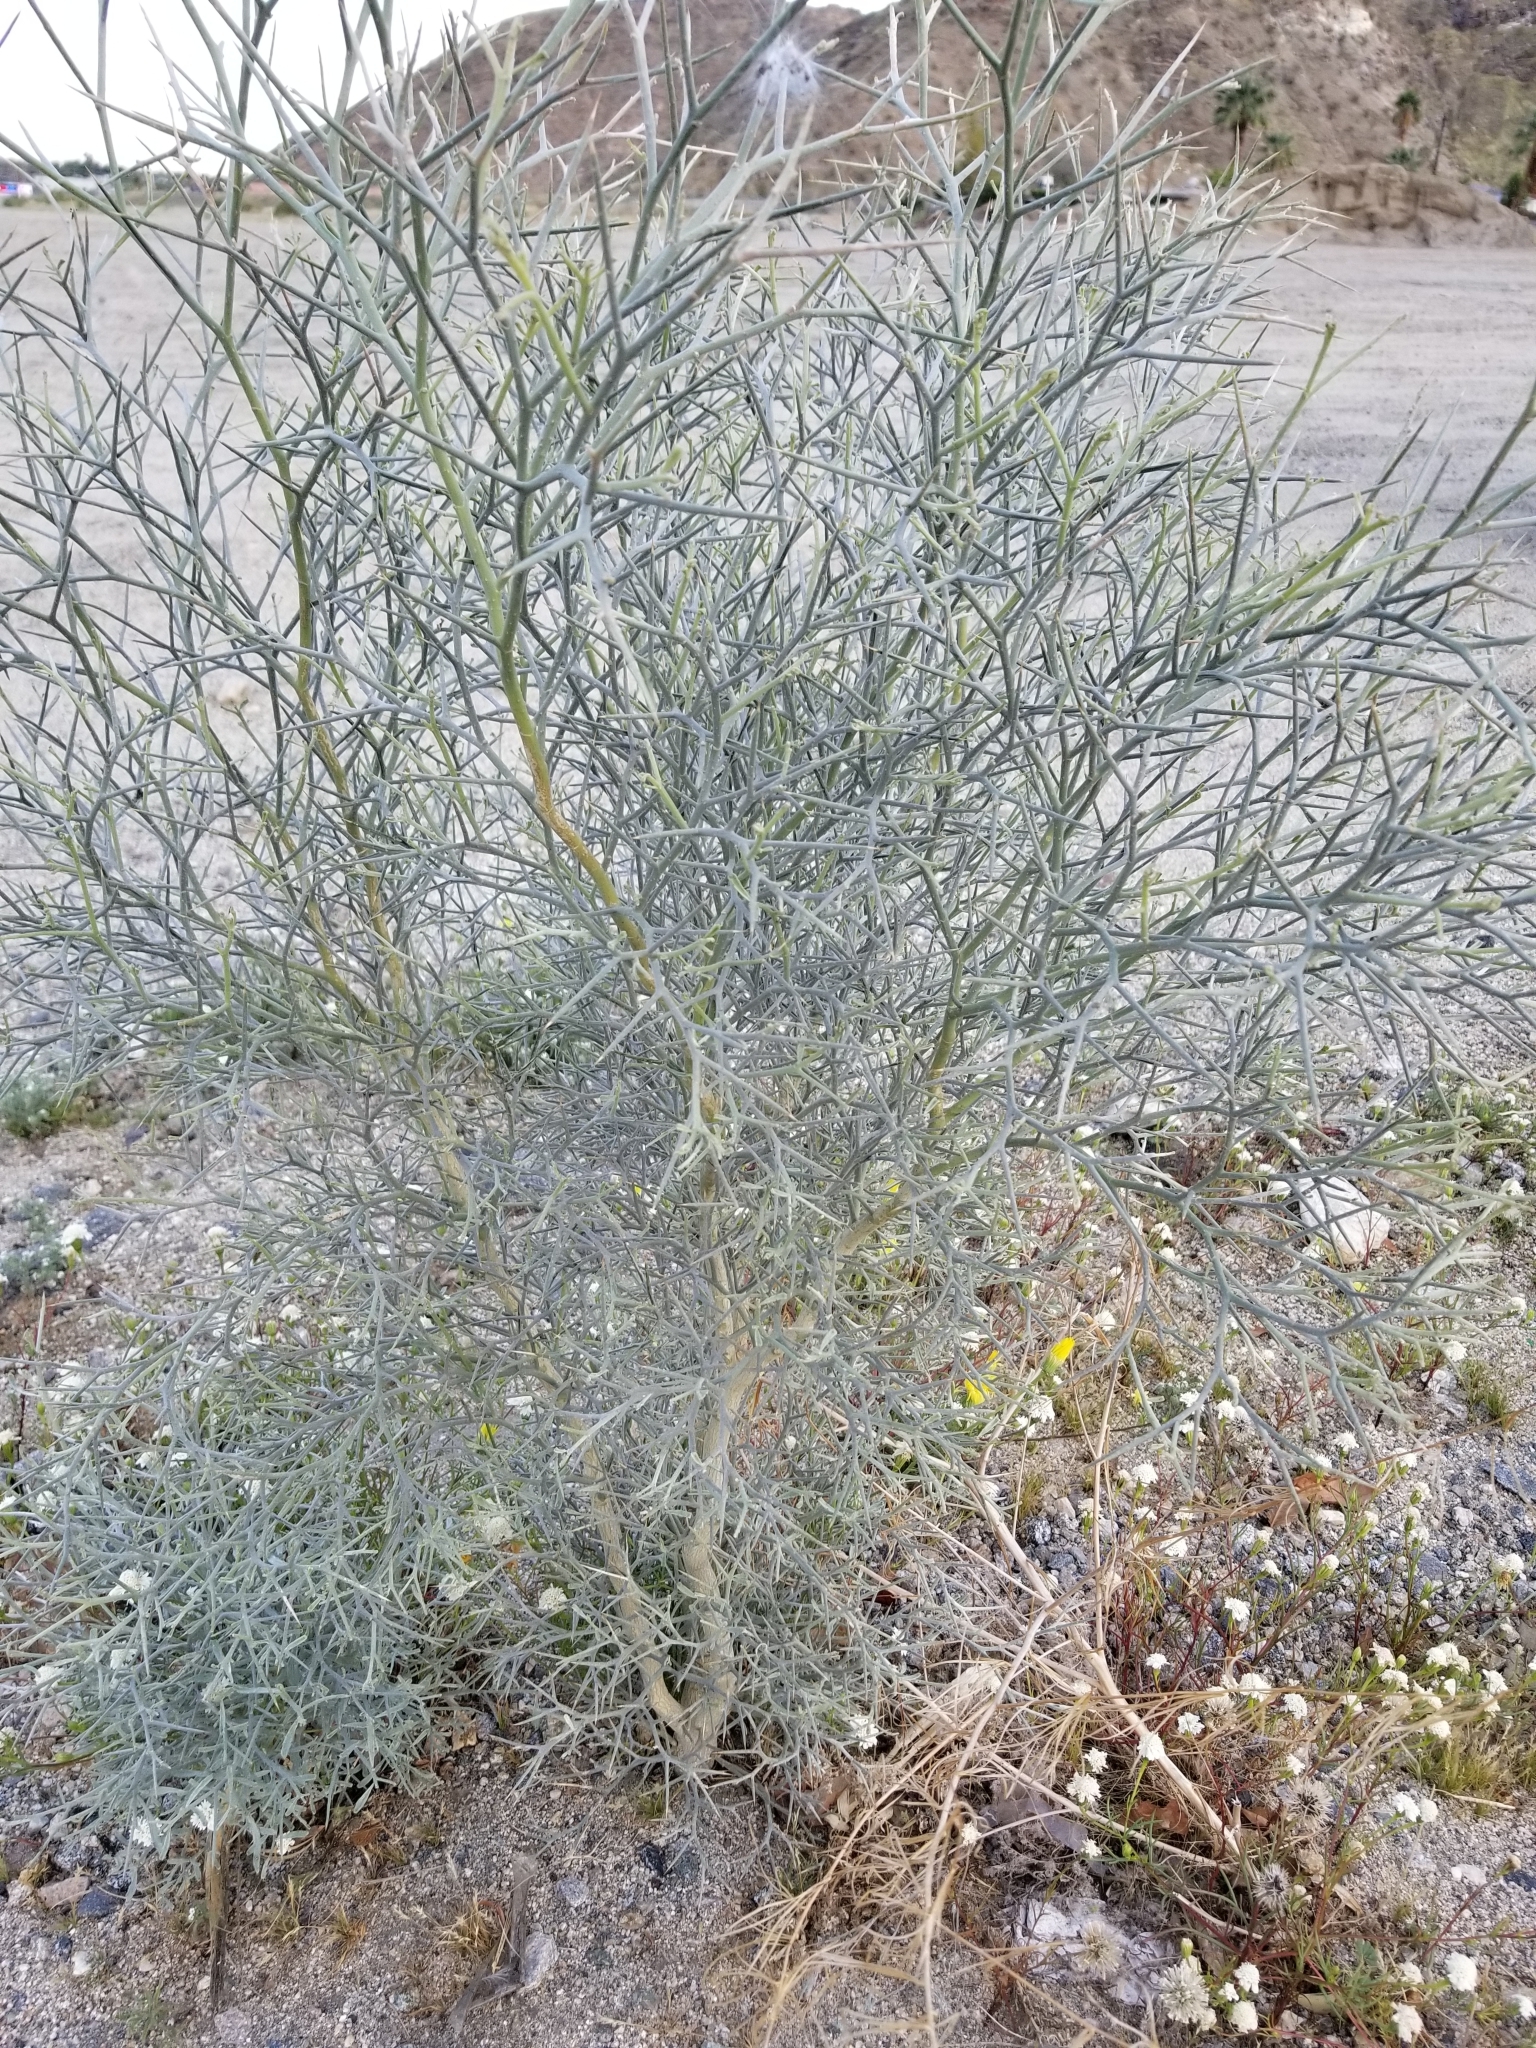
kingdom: Plantae
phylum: Tracheophyta
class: Magnoliopsida
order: Fabales
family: Fabaceae
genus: Psorothamnus
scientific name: Psorothamnus spinosus
